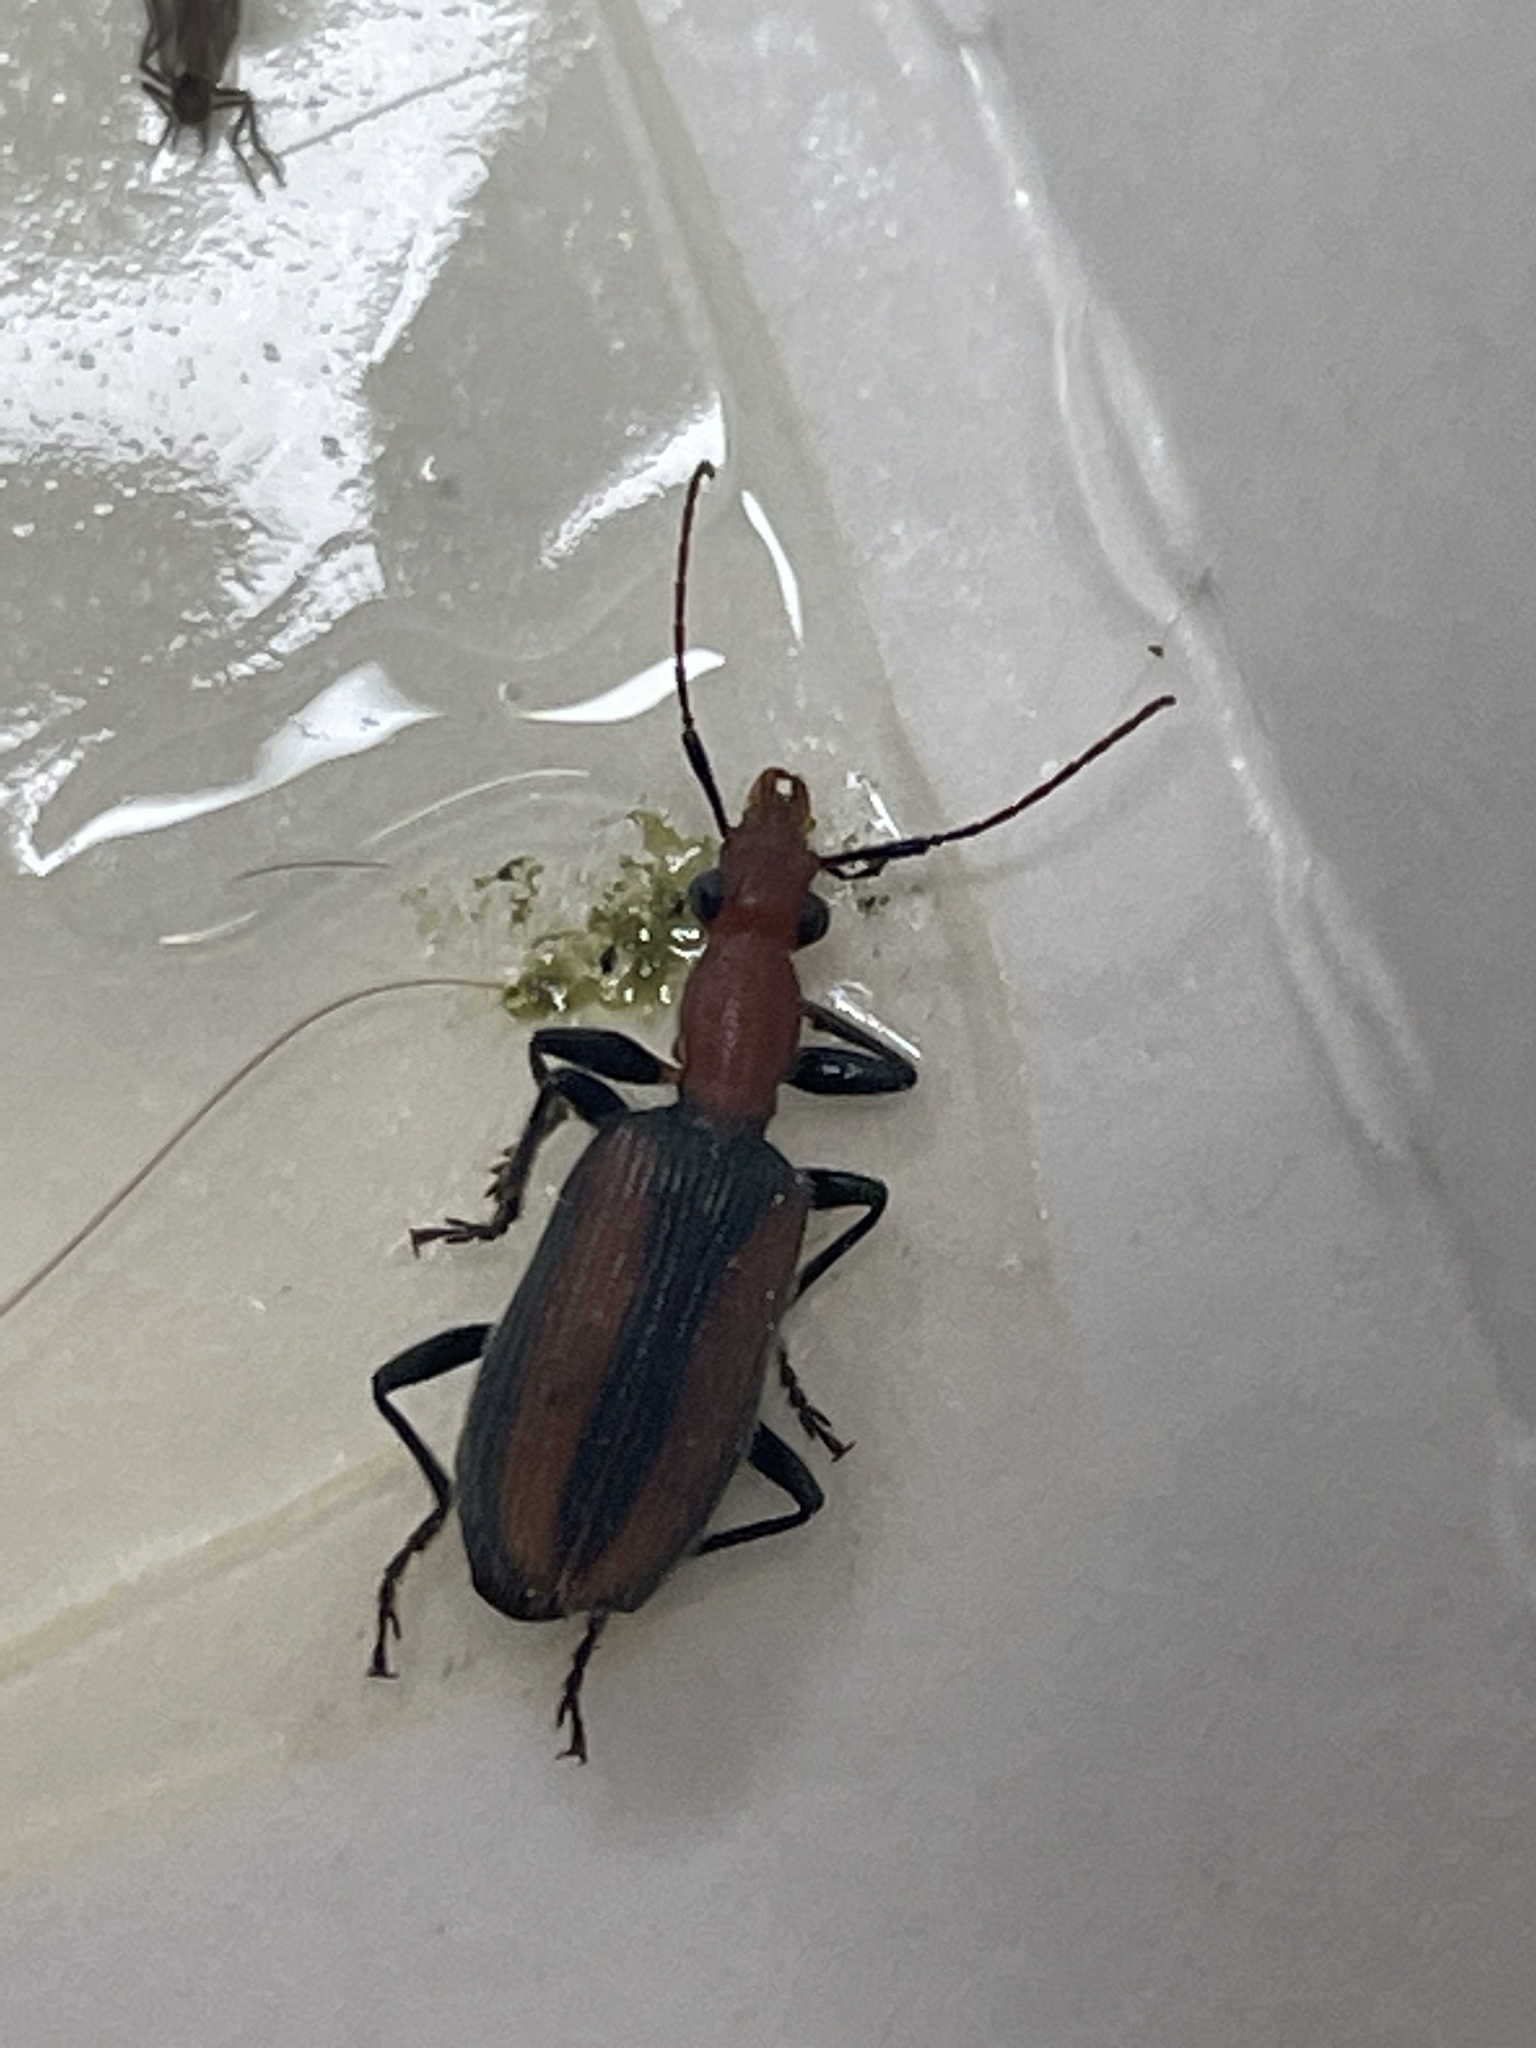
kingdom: Animalia
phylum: Arthropoda
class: Insecta
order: Coleoptera
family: Carabidae
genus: Drypta
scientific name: Drypta australis
